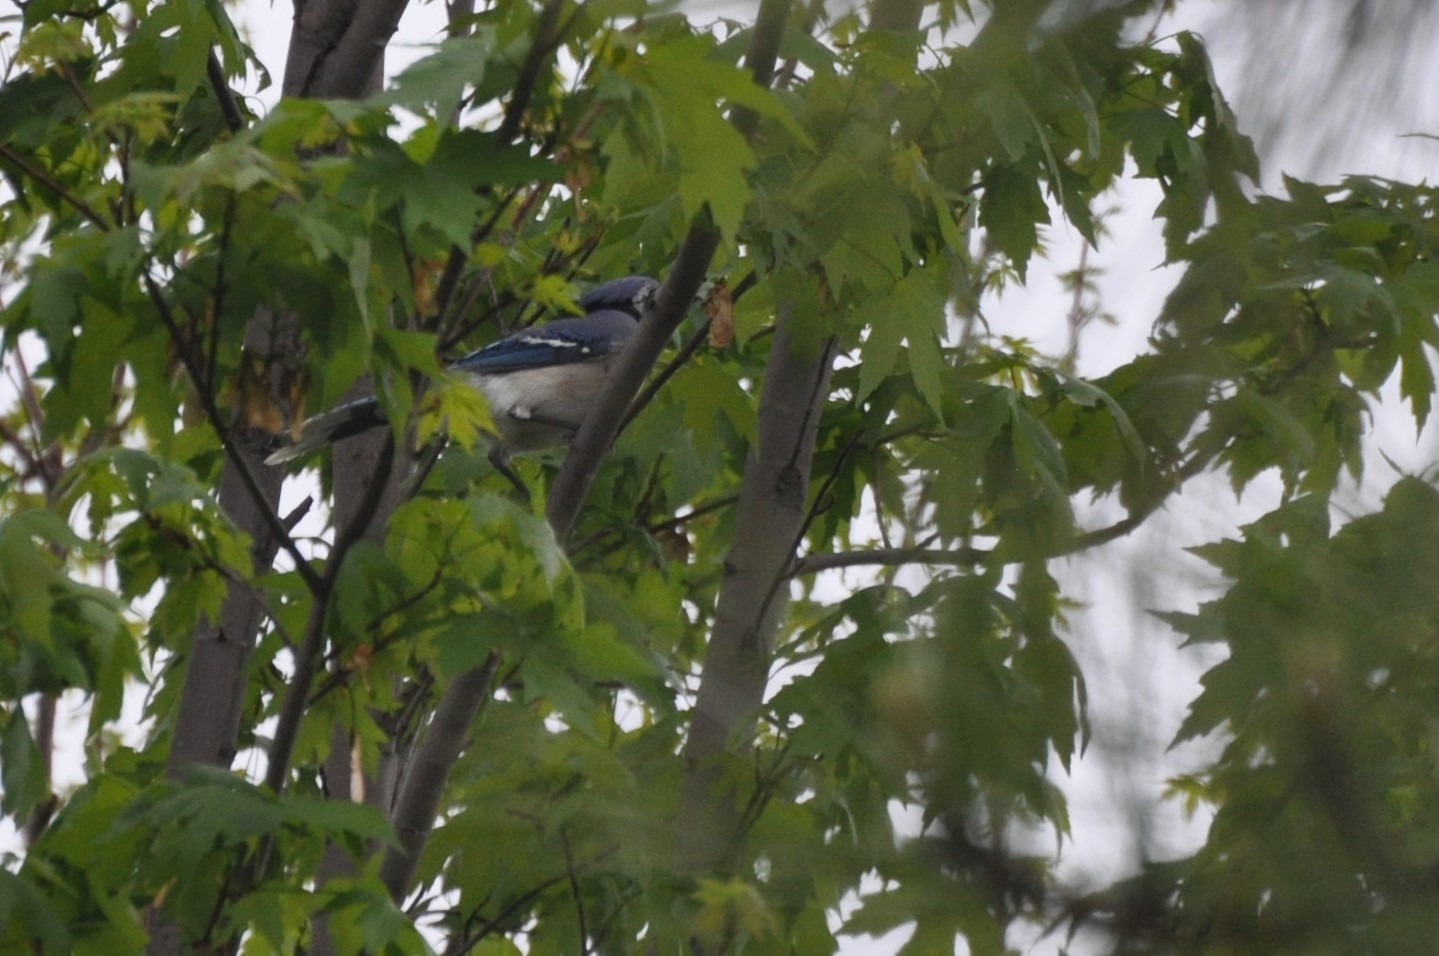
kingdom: Animalia
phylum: Chordata
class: Aves
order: Passeriformes
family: Corvidae
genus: Cyanocitta
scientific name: Cyanocitta cristata
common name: Blue jay
